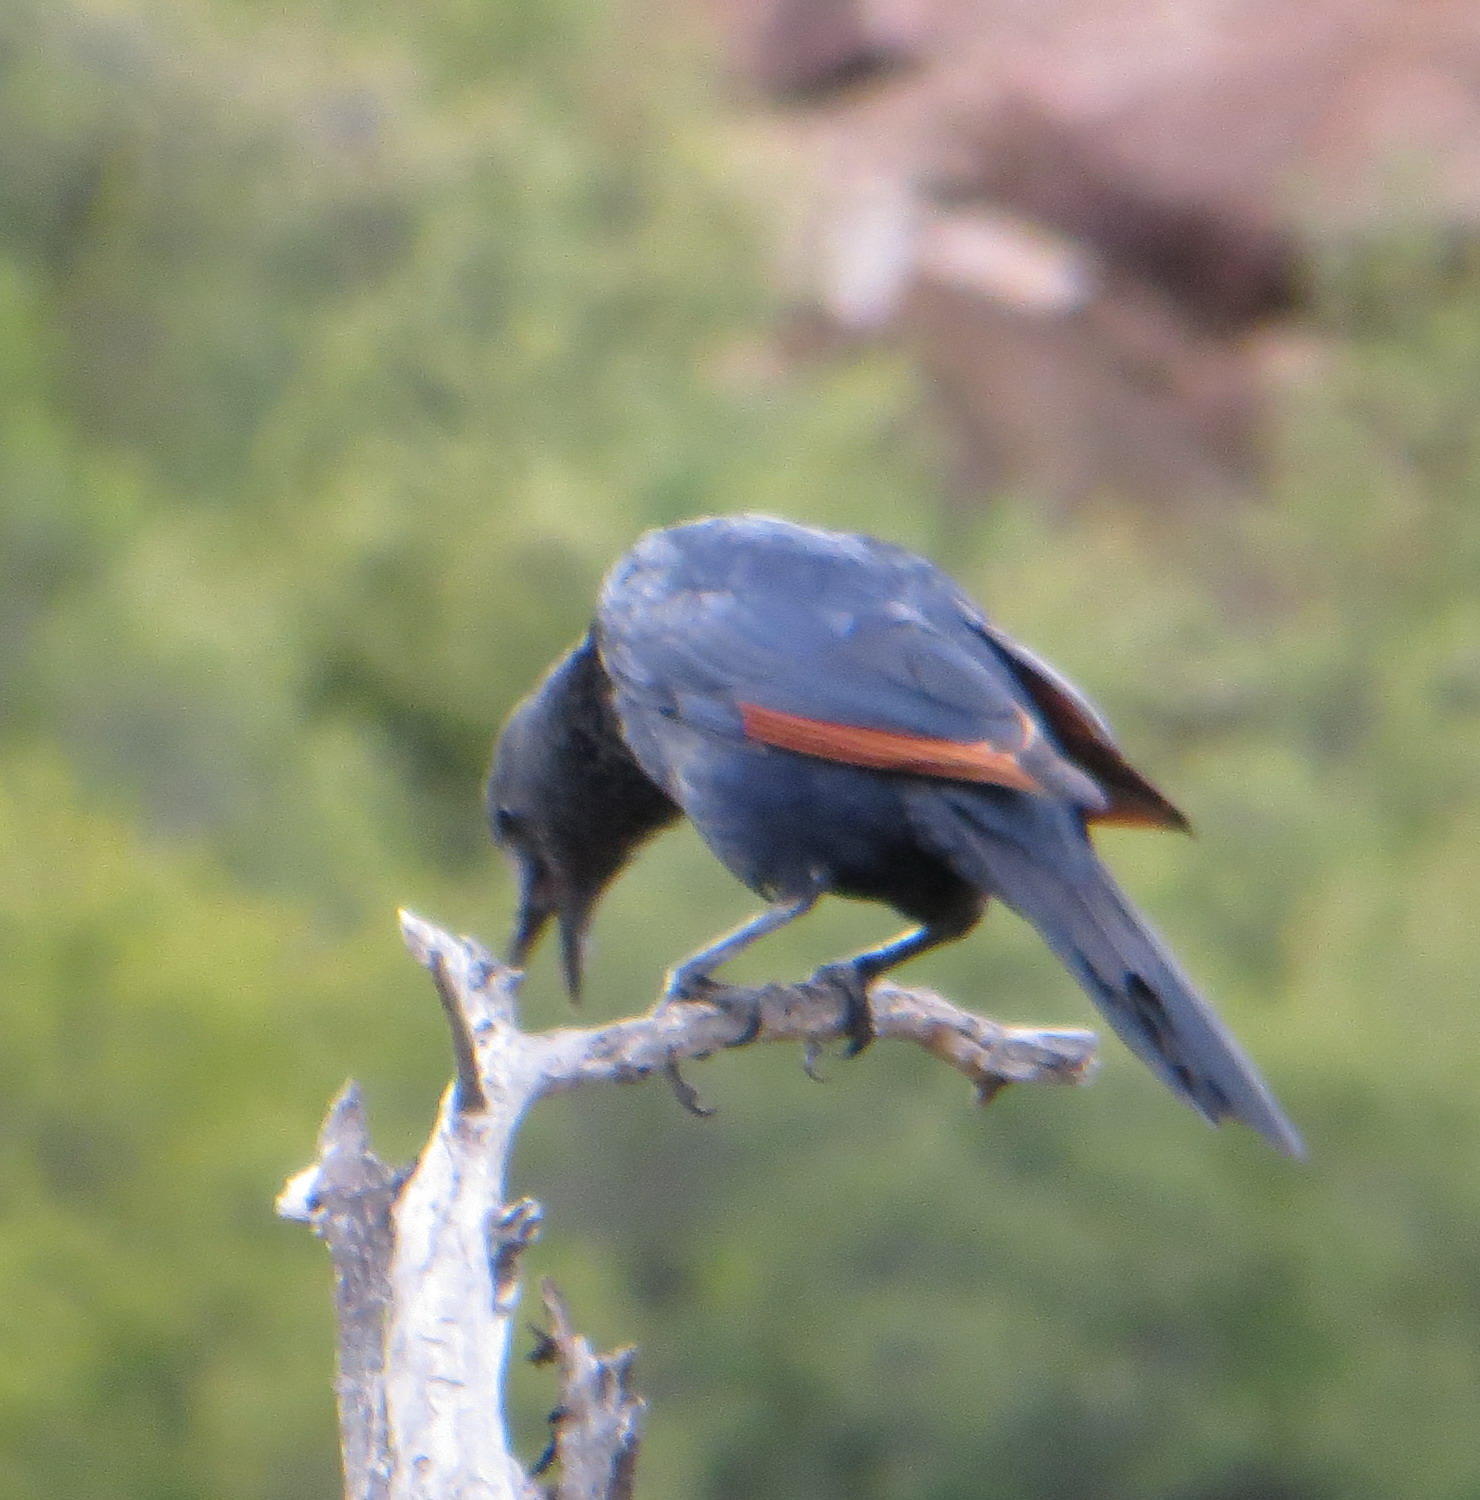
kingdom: Animalia
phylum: Chordata
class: Aves
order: Passeriformes
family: Sturnidae
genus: Onychognathus
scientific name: Onychognathus morio
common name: Red-winged starling
